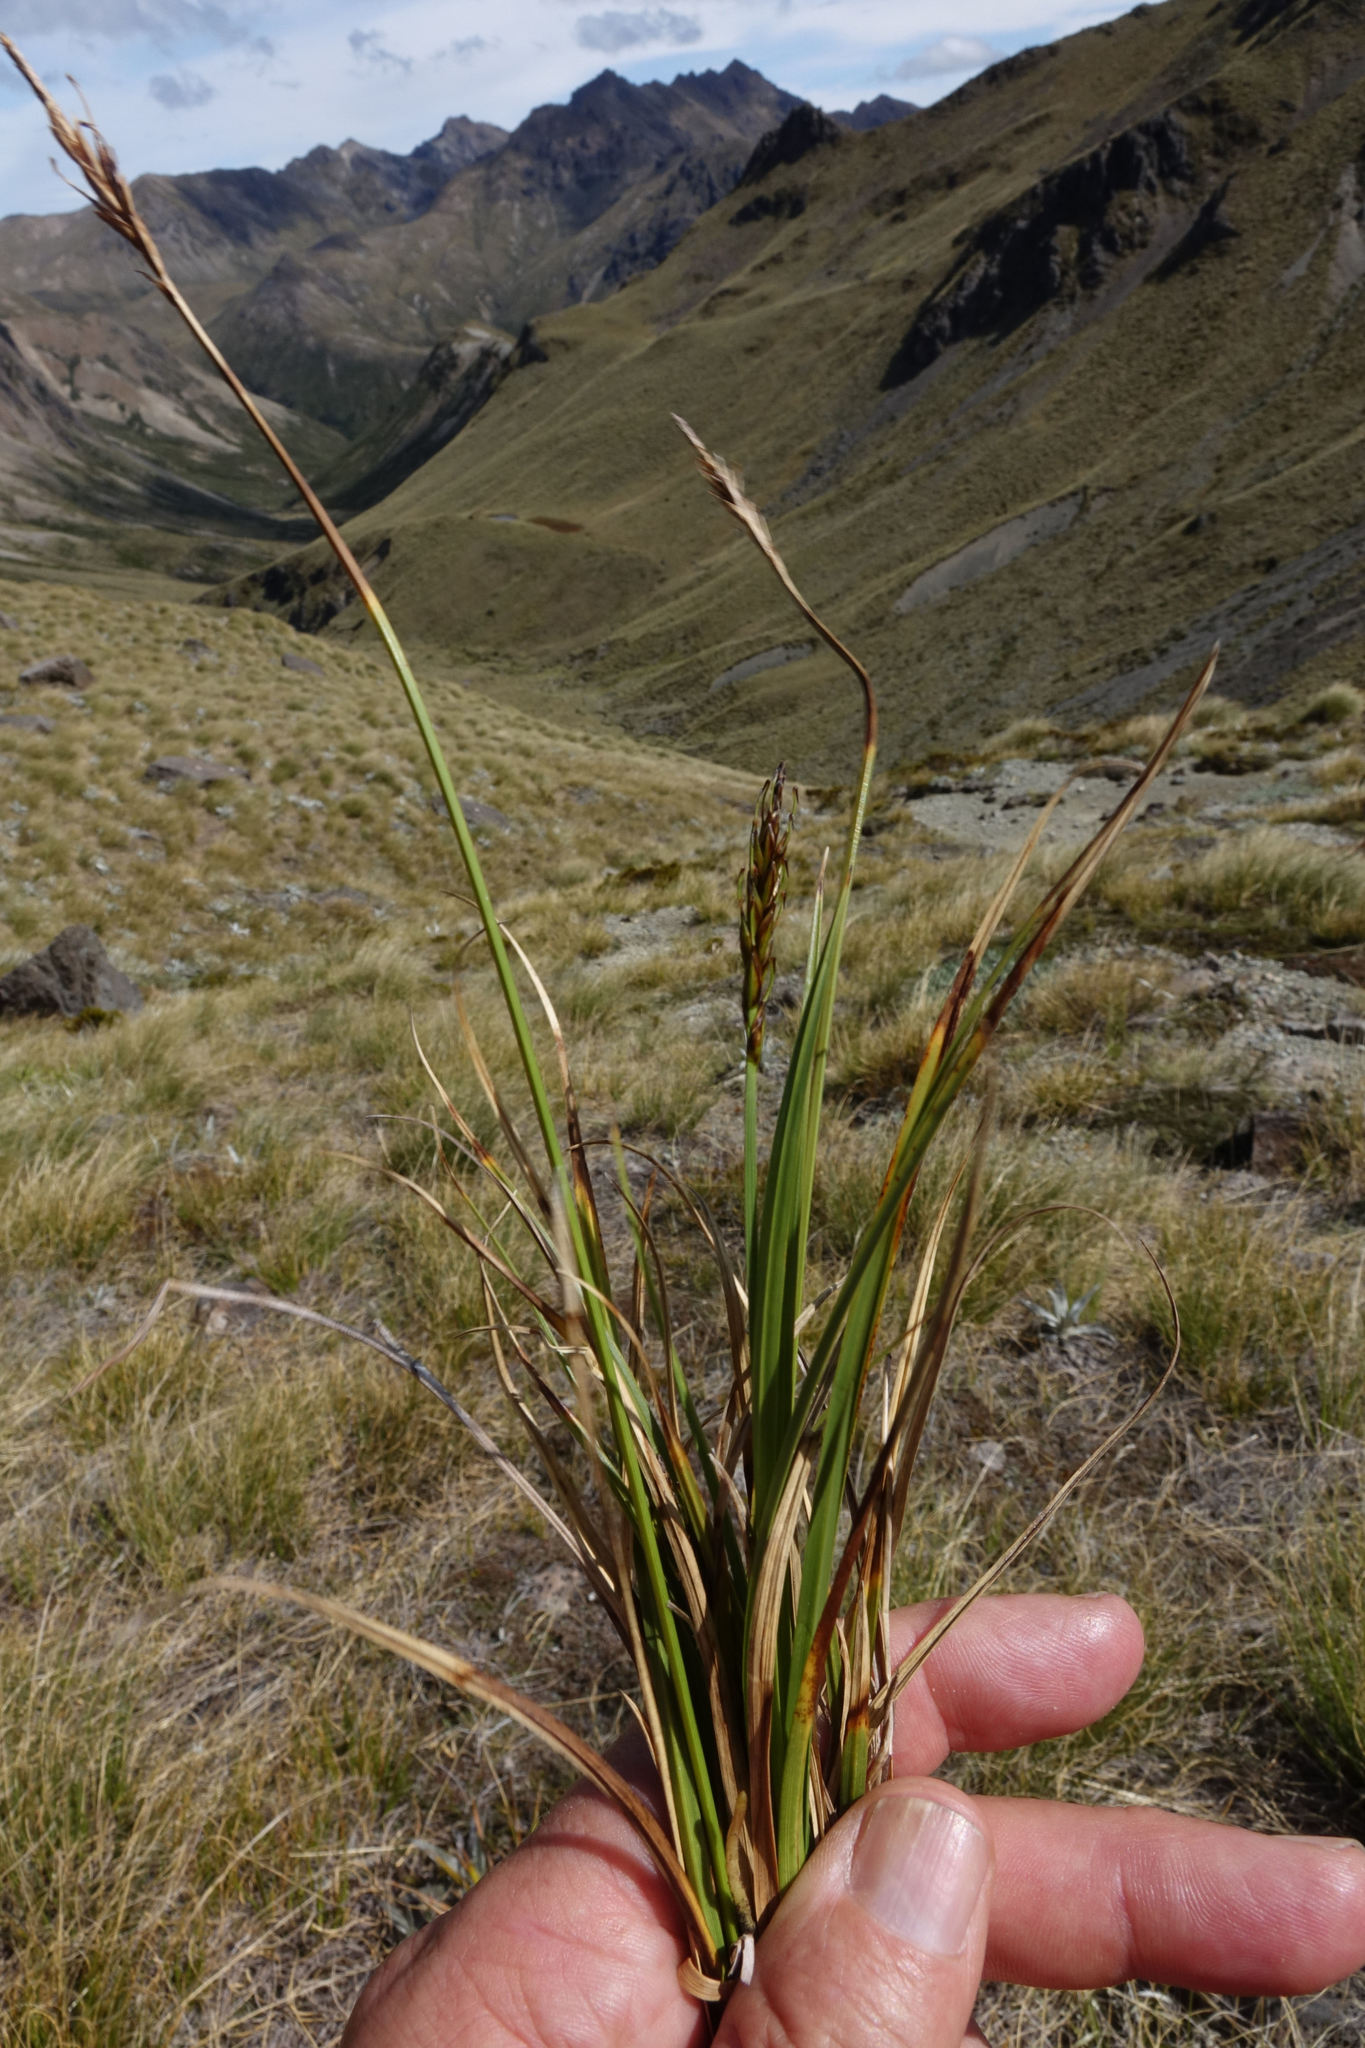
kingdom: Plantae
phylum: Tracheophyta
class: Liliopsida
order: Poales
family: Cyperaceae
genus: Carex
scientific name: Carex penalpina
